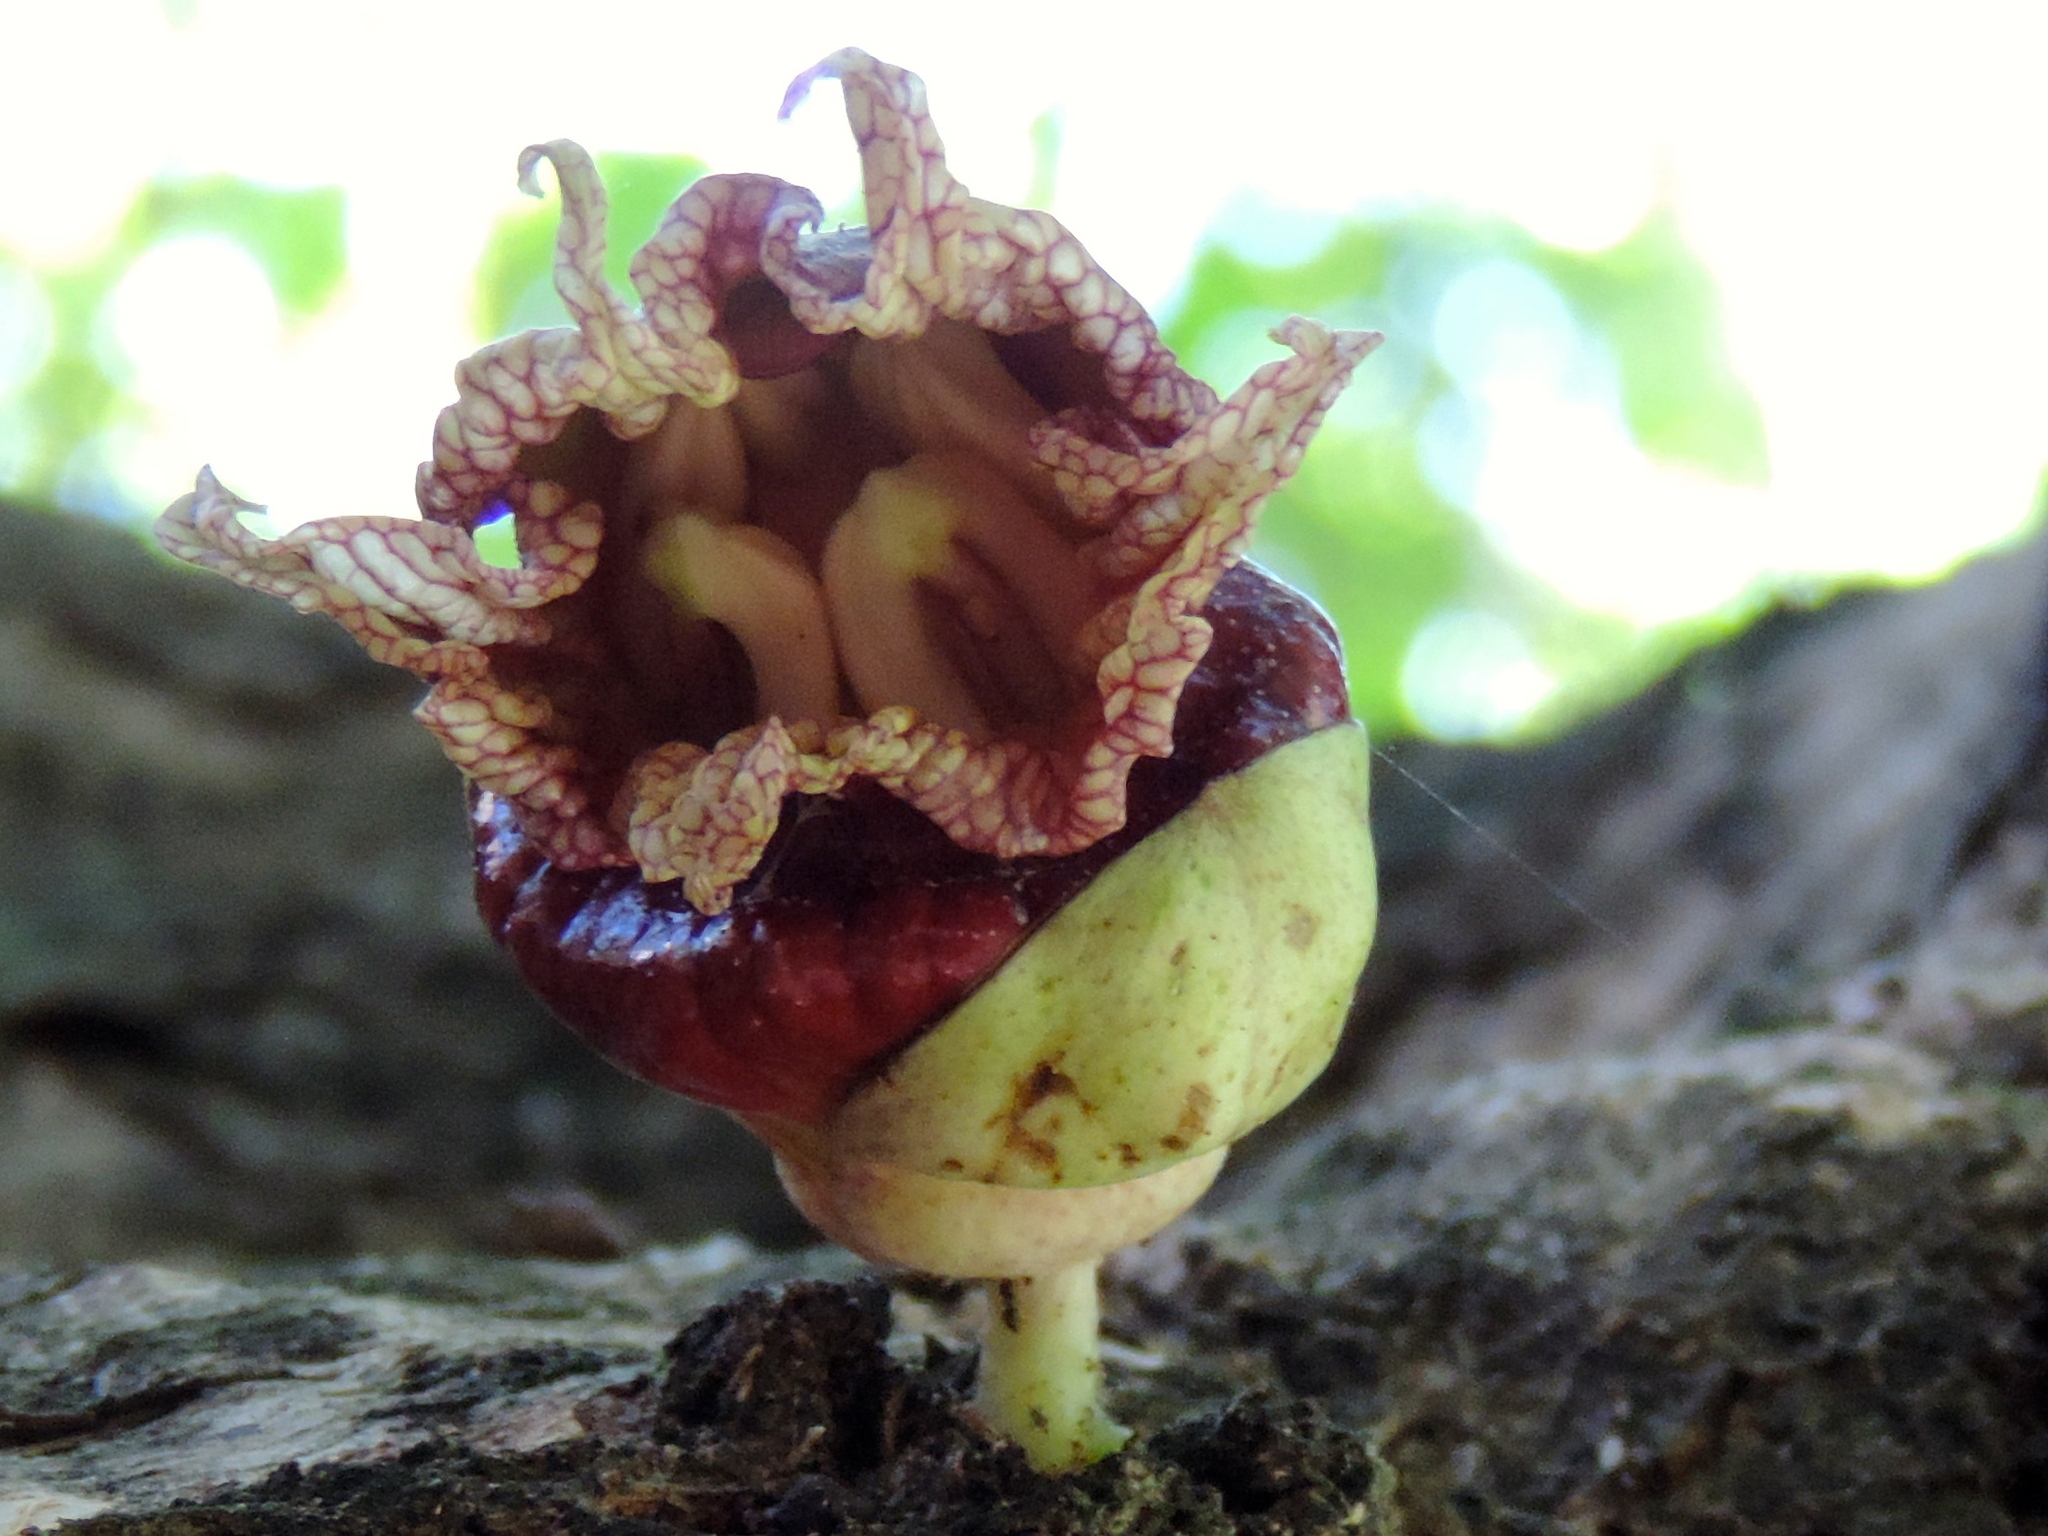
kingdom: Plantae
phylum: Tracheophyta
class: Magnoliopsida
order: Lamiales
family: Bignoniaceae
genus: Crescentia
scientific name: Crescentia alata
